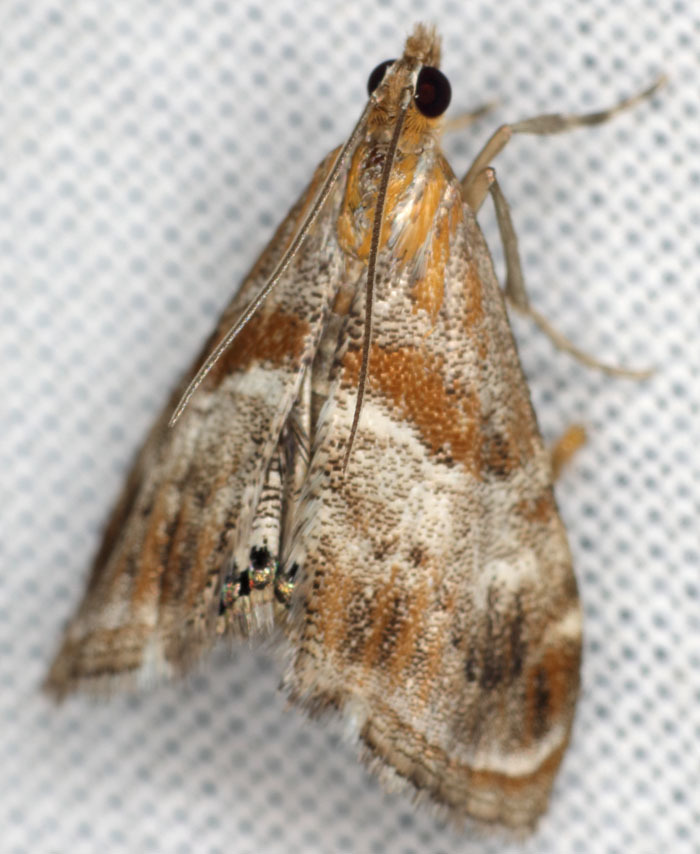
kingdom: Animalia
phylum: Arthropoda
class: Insecta
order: Lepidoptera
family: Crambidae
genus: Dicymolomia
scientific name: Dicymolomia metalliferalis
